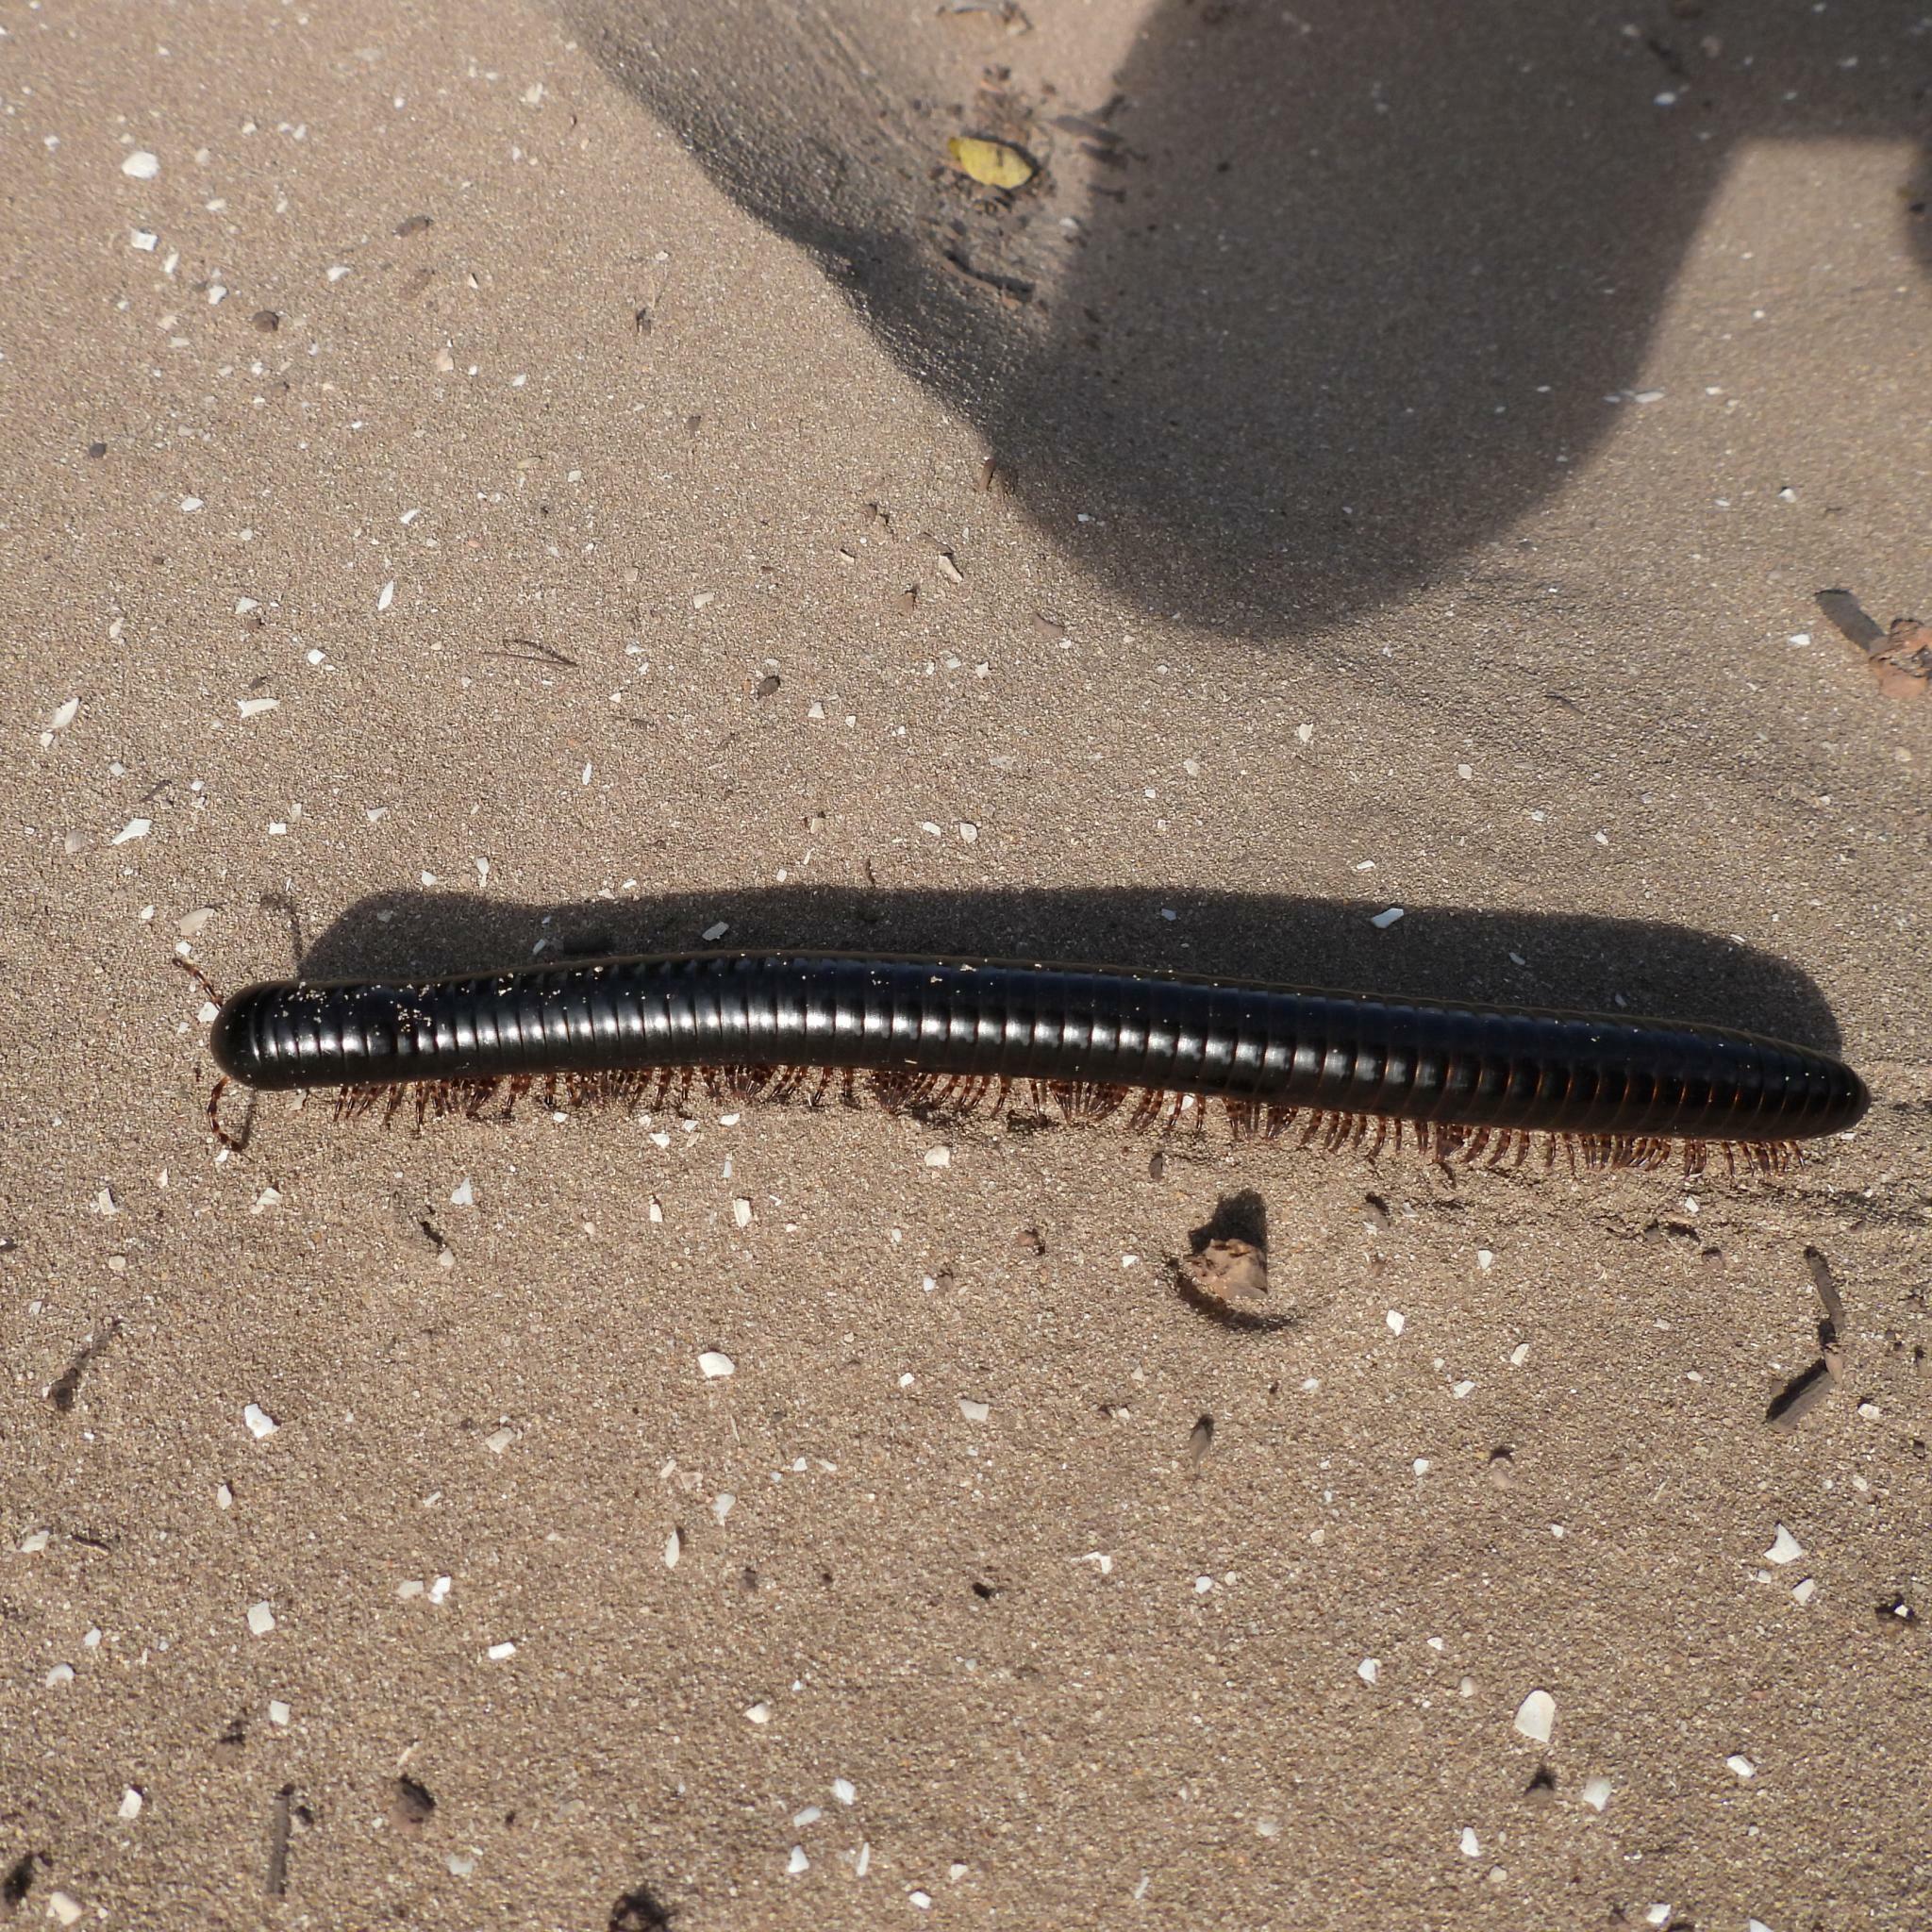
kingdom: Animalia
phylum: Arthropoda
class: Diplopoda
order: Spirostreptida
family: Spirostreptidae
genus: Doratogonus
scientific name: Doratogonus annulipes
